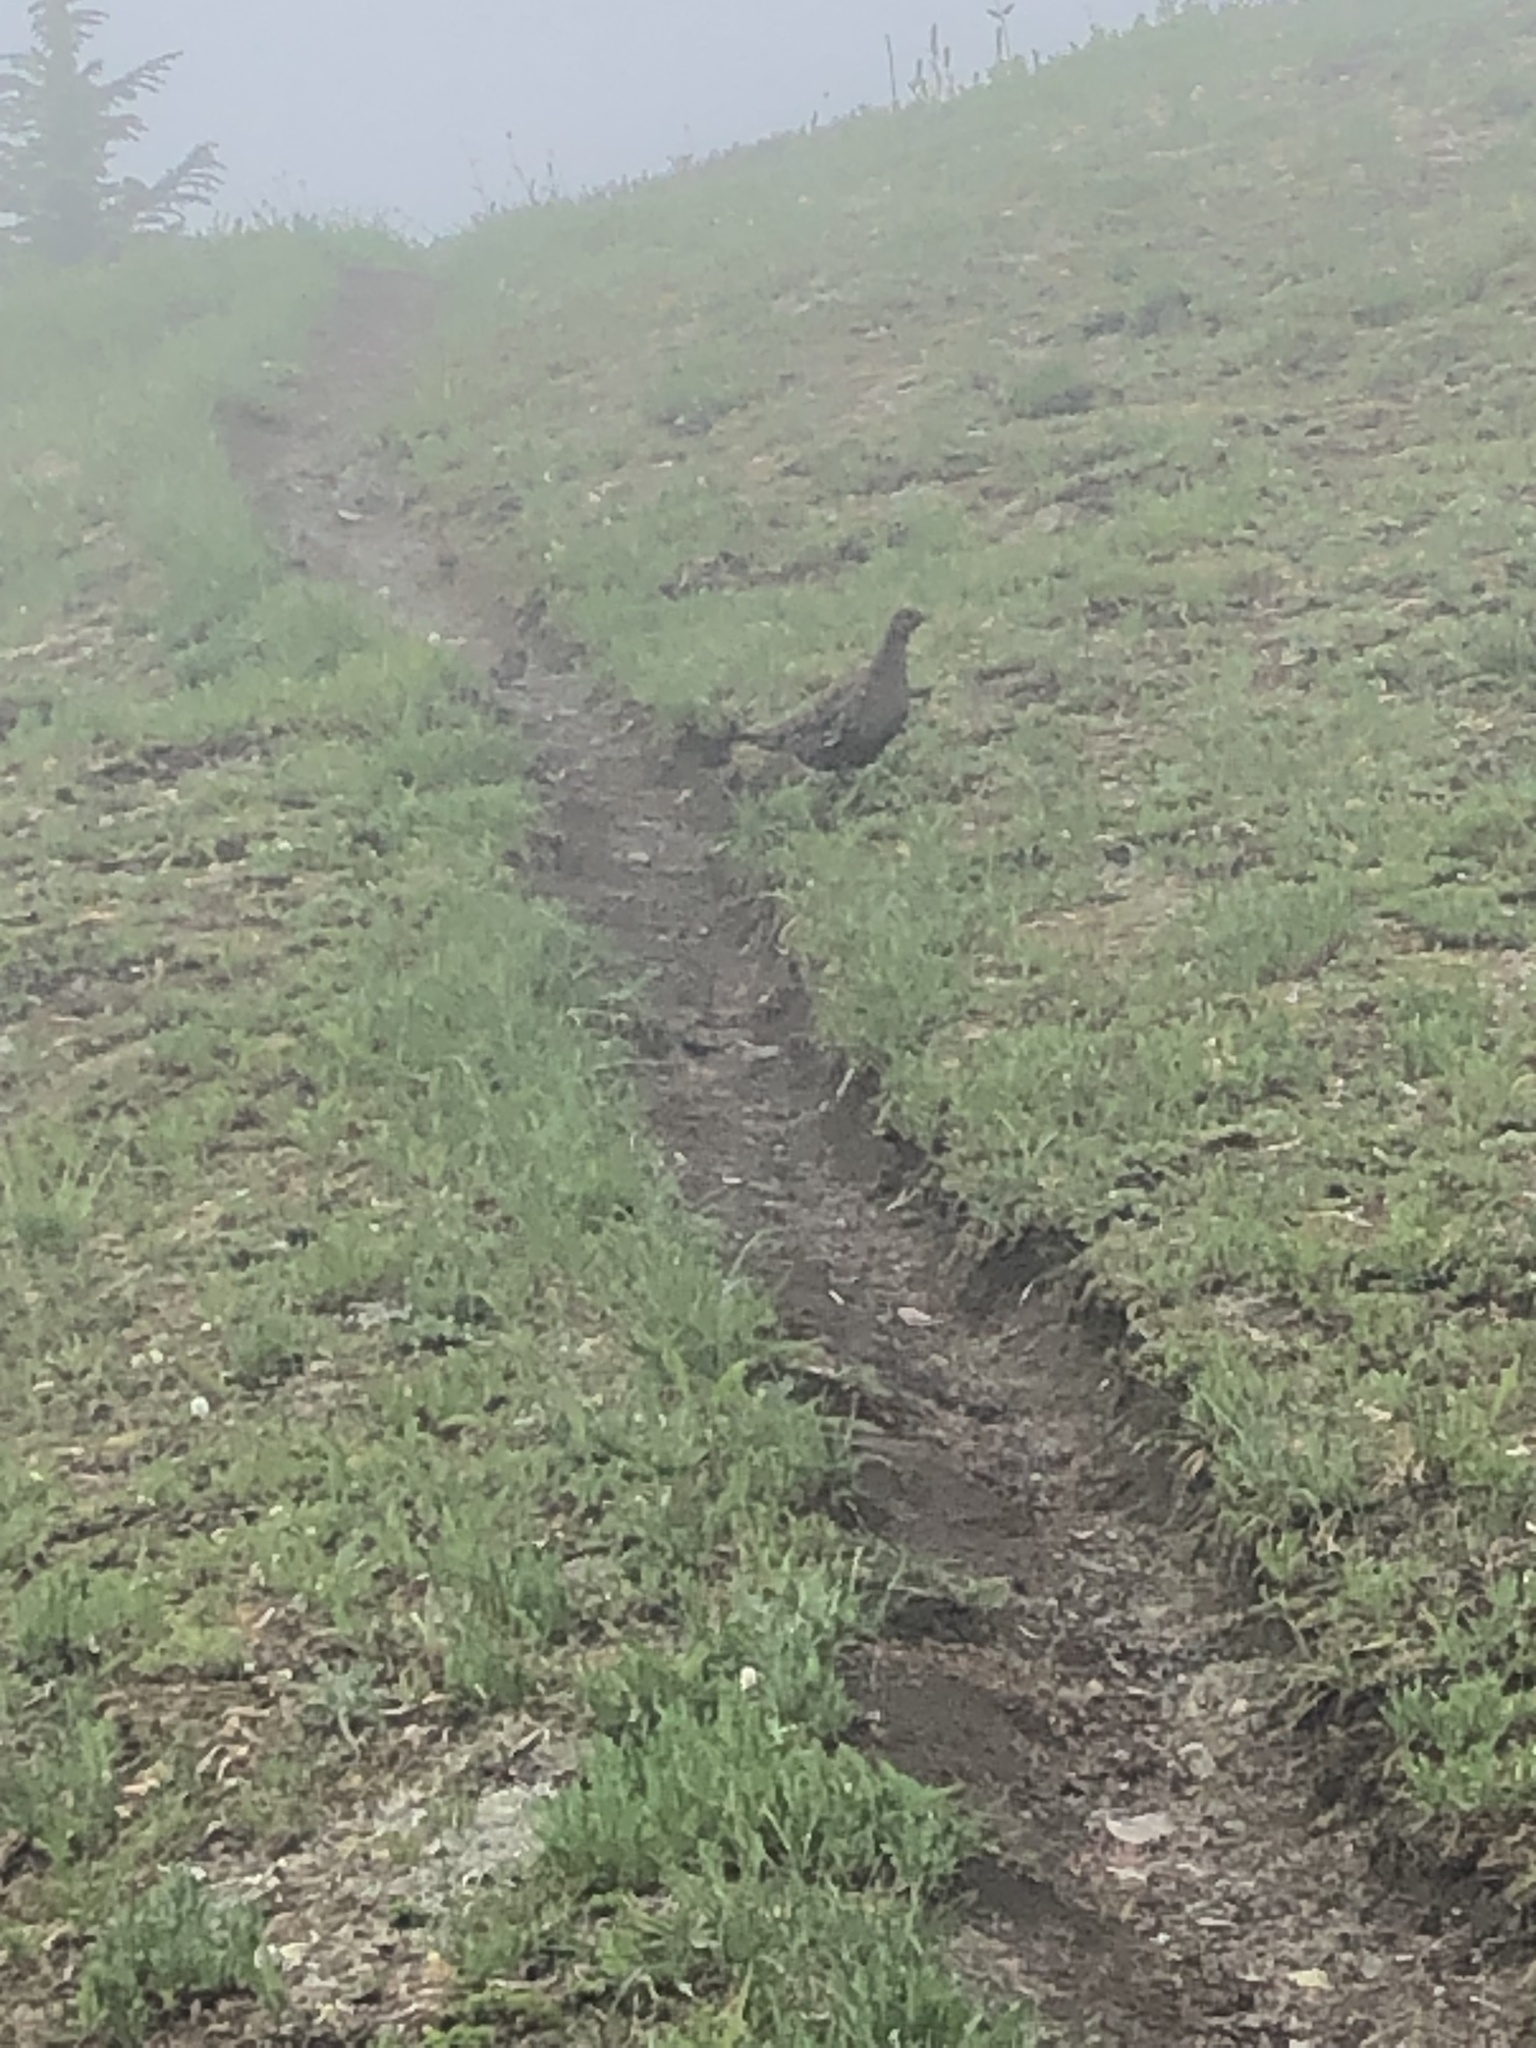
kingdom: Animalia
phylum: Chordata
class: Aves
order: Galliformes
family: Phasianidae
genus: Dendragapus
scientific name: Dendragapus fuliginosus
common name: Sooty grouse
